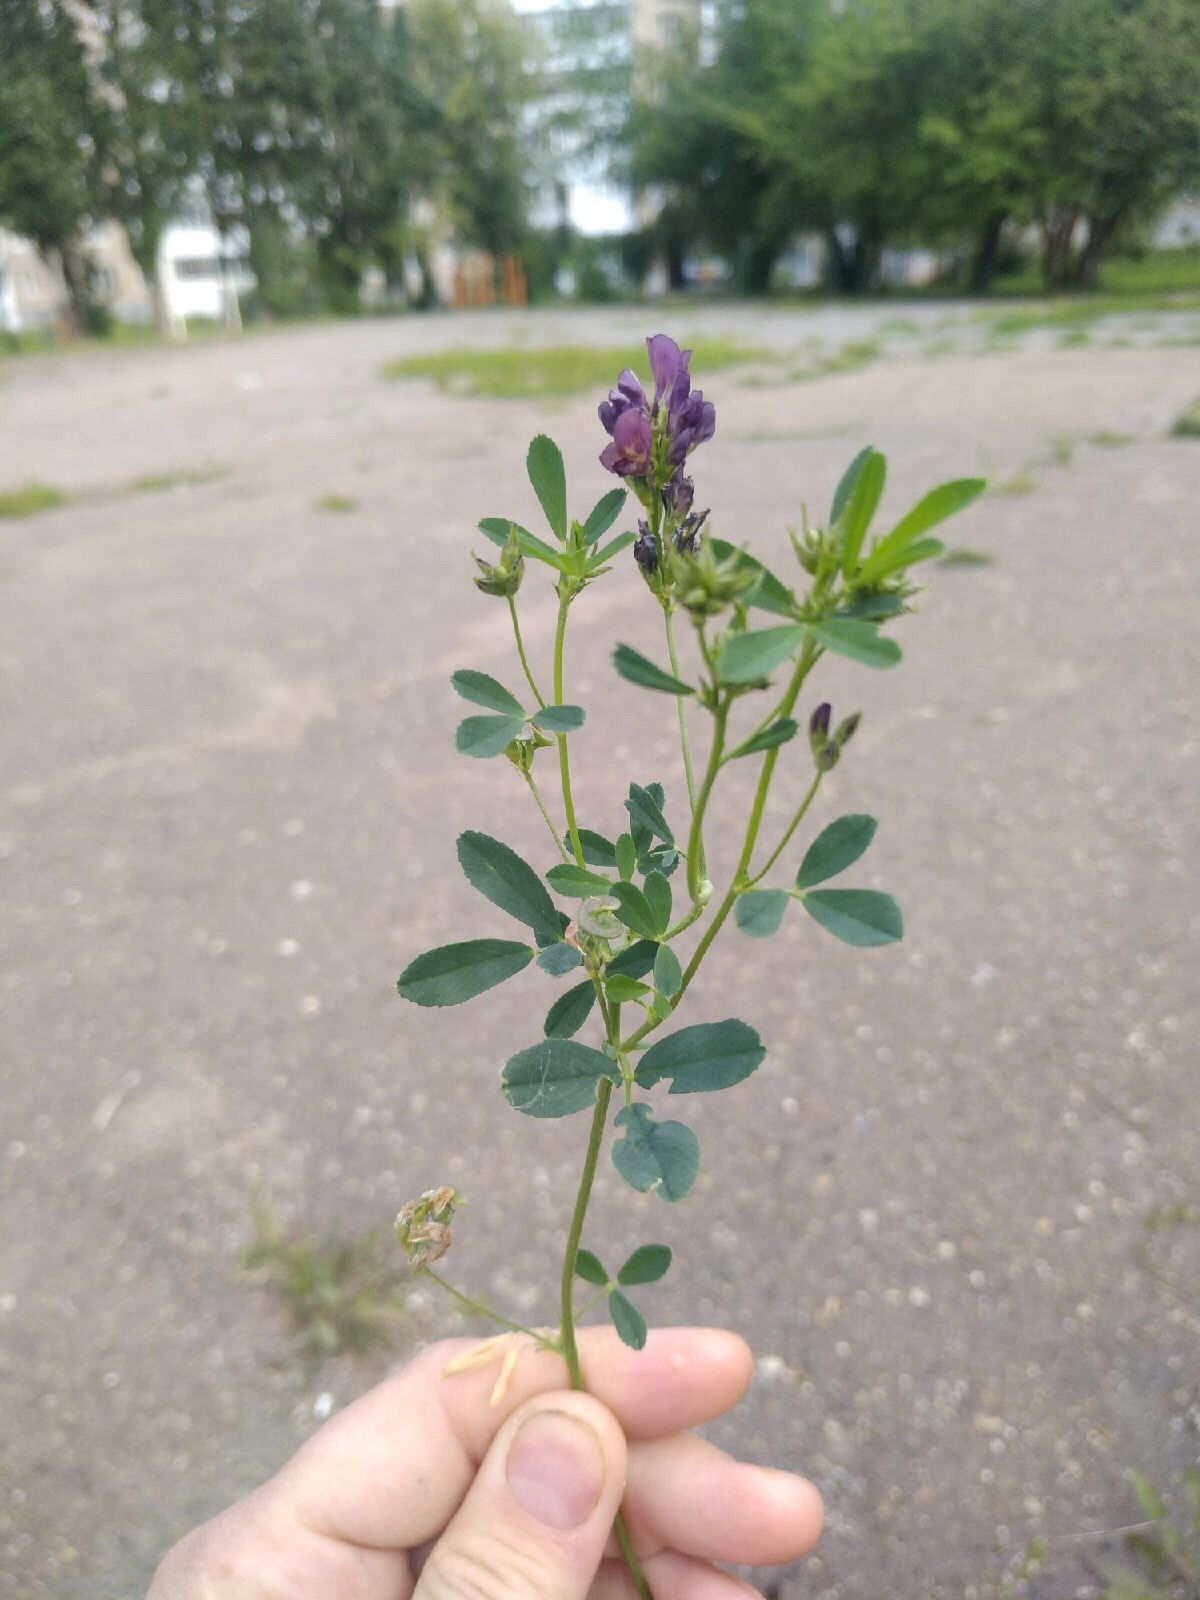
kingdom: Plantae
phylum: Tracheophyta
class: Magnoliopsida
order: Fabales
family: Fabaceae
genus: Medicago
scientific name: Medicago varia
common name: Sand lucerne
